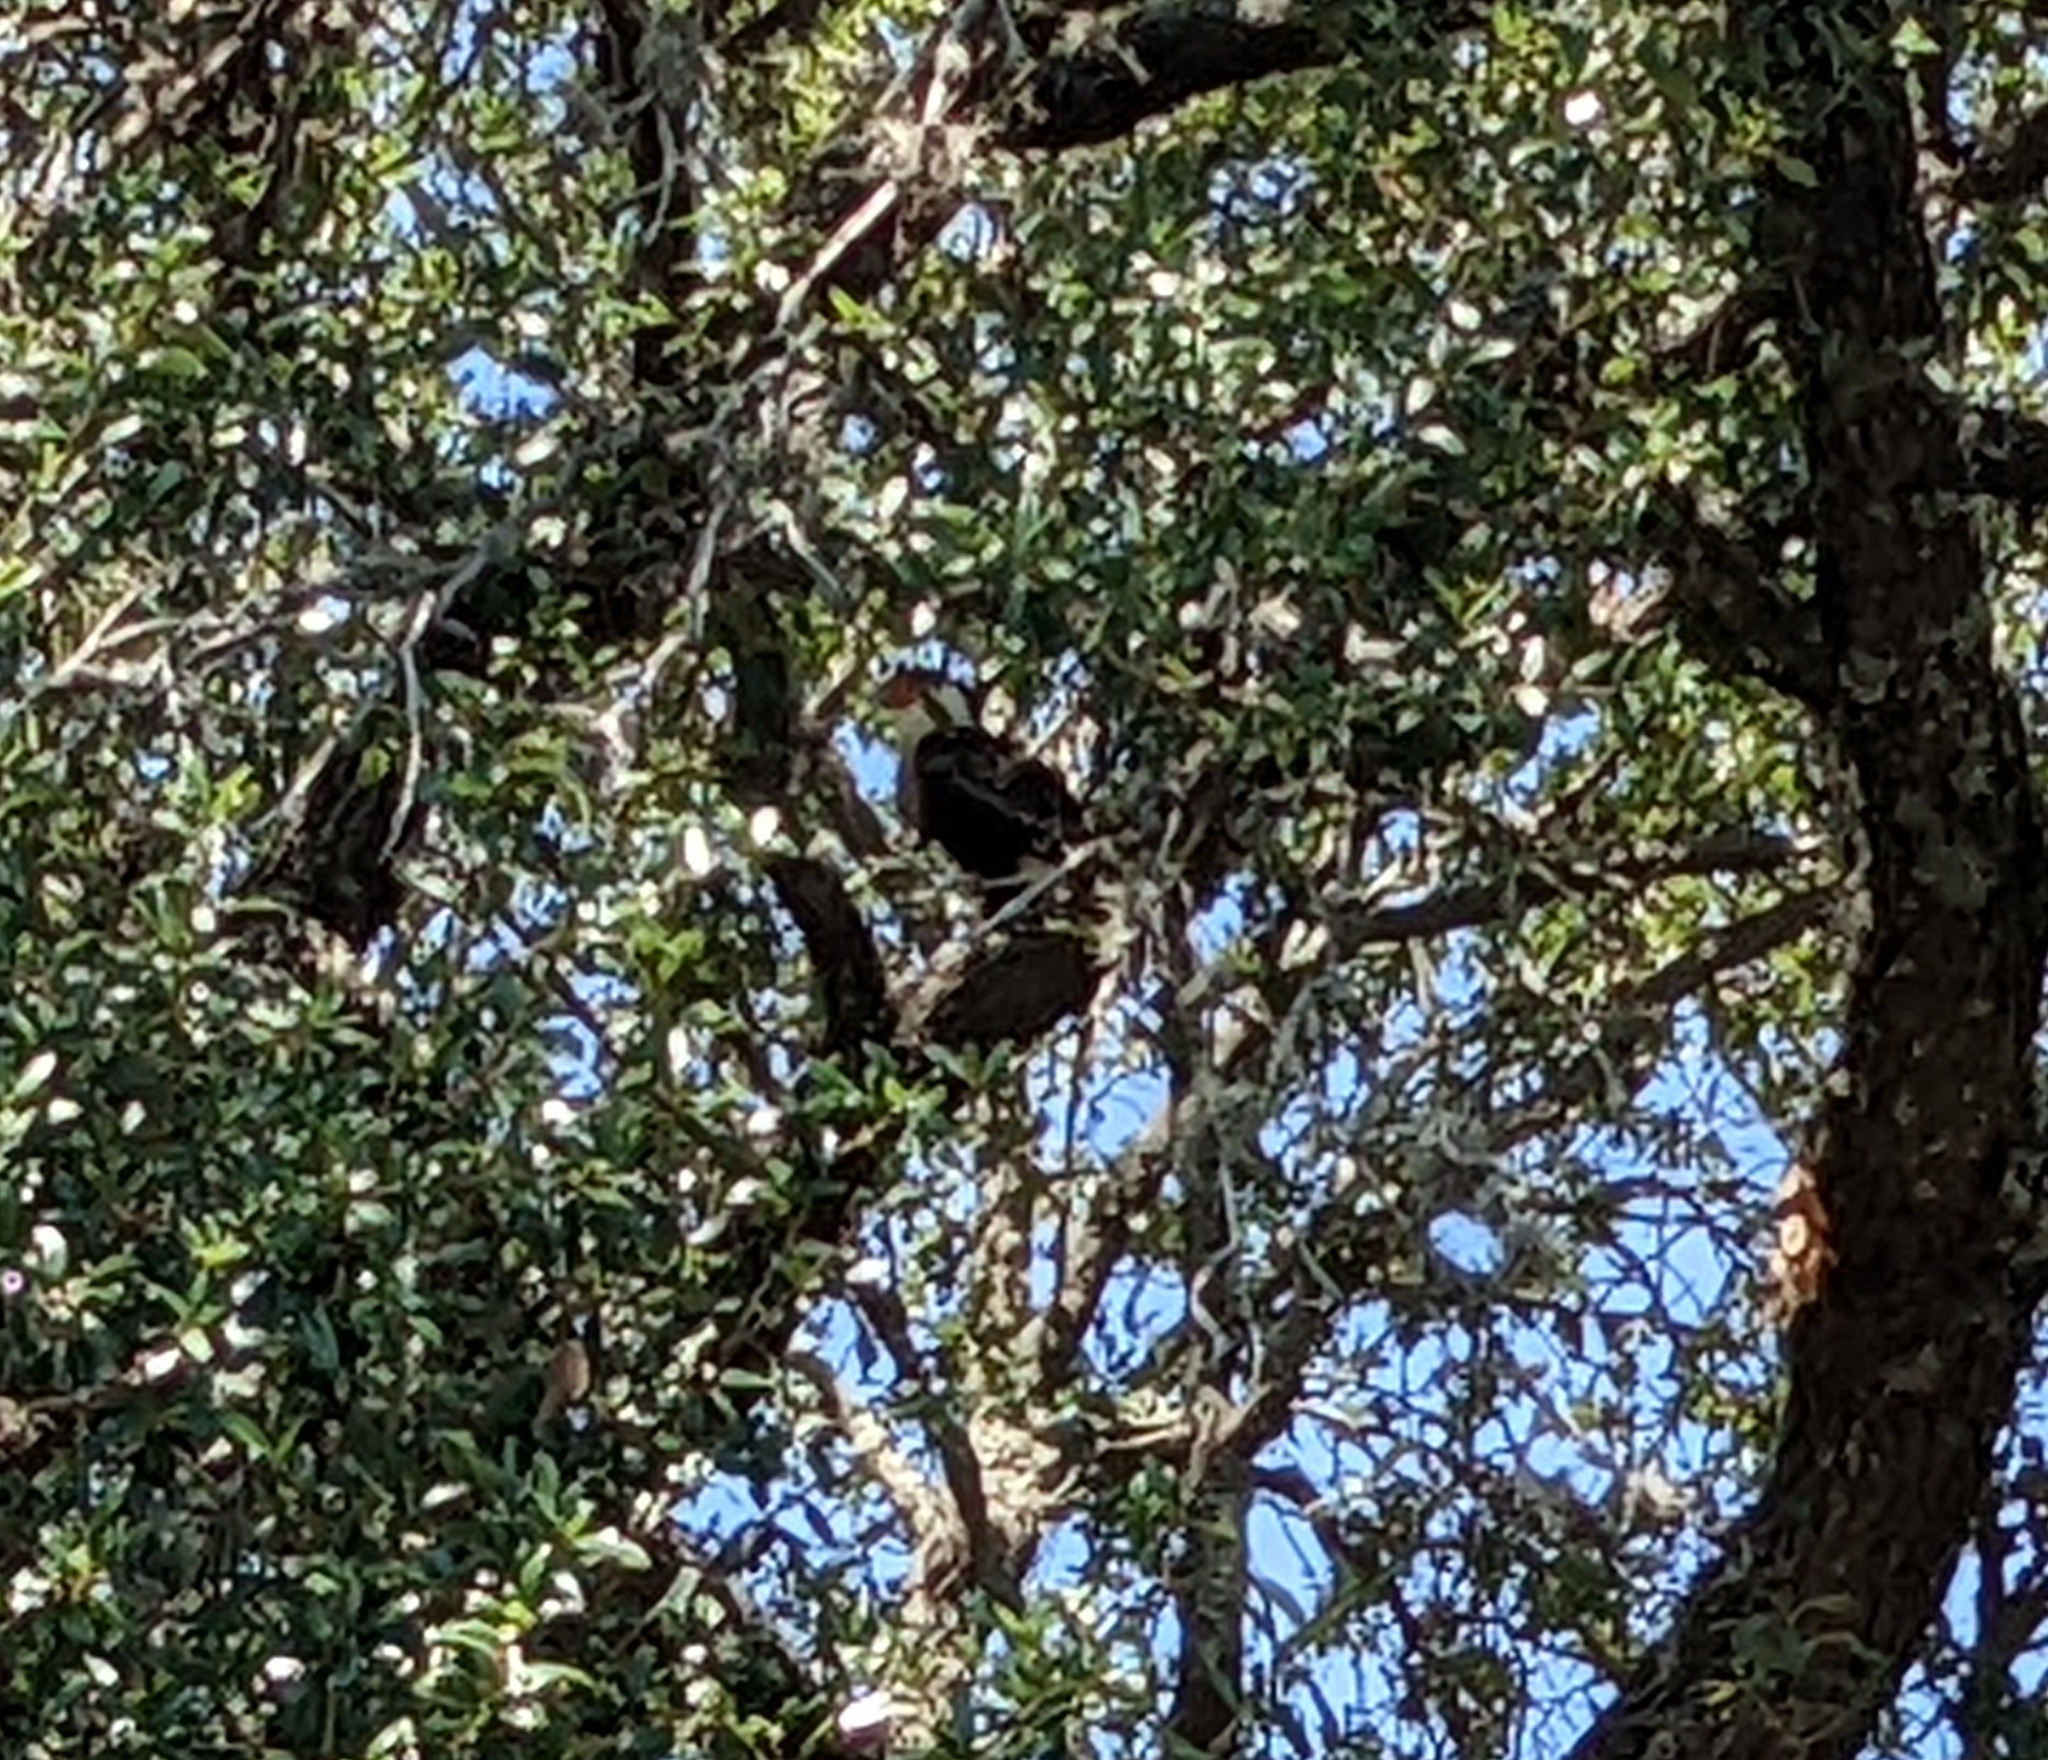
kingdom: Animalia
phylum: Chordata
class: Aves
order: Falconiformes
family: Falconidae
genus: Caracara
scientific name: Caracara plancus
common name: Southern caracara
